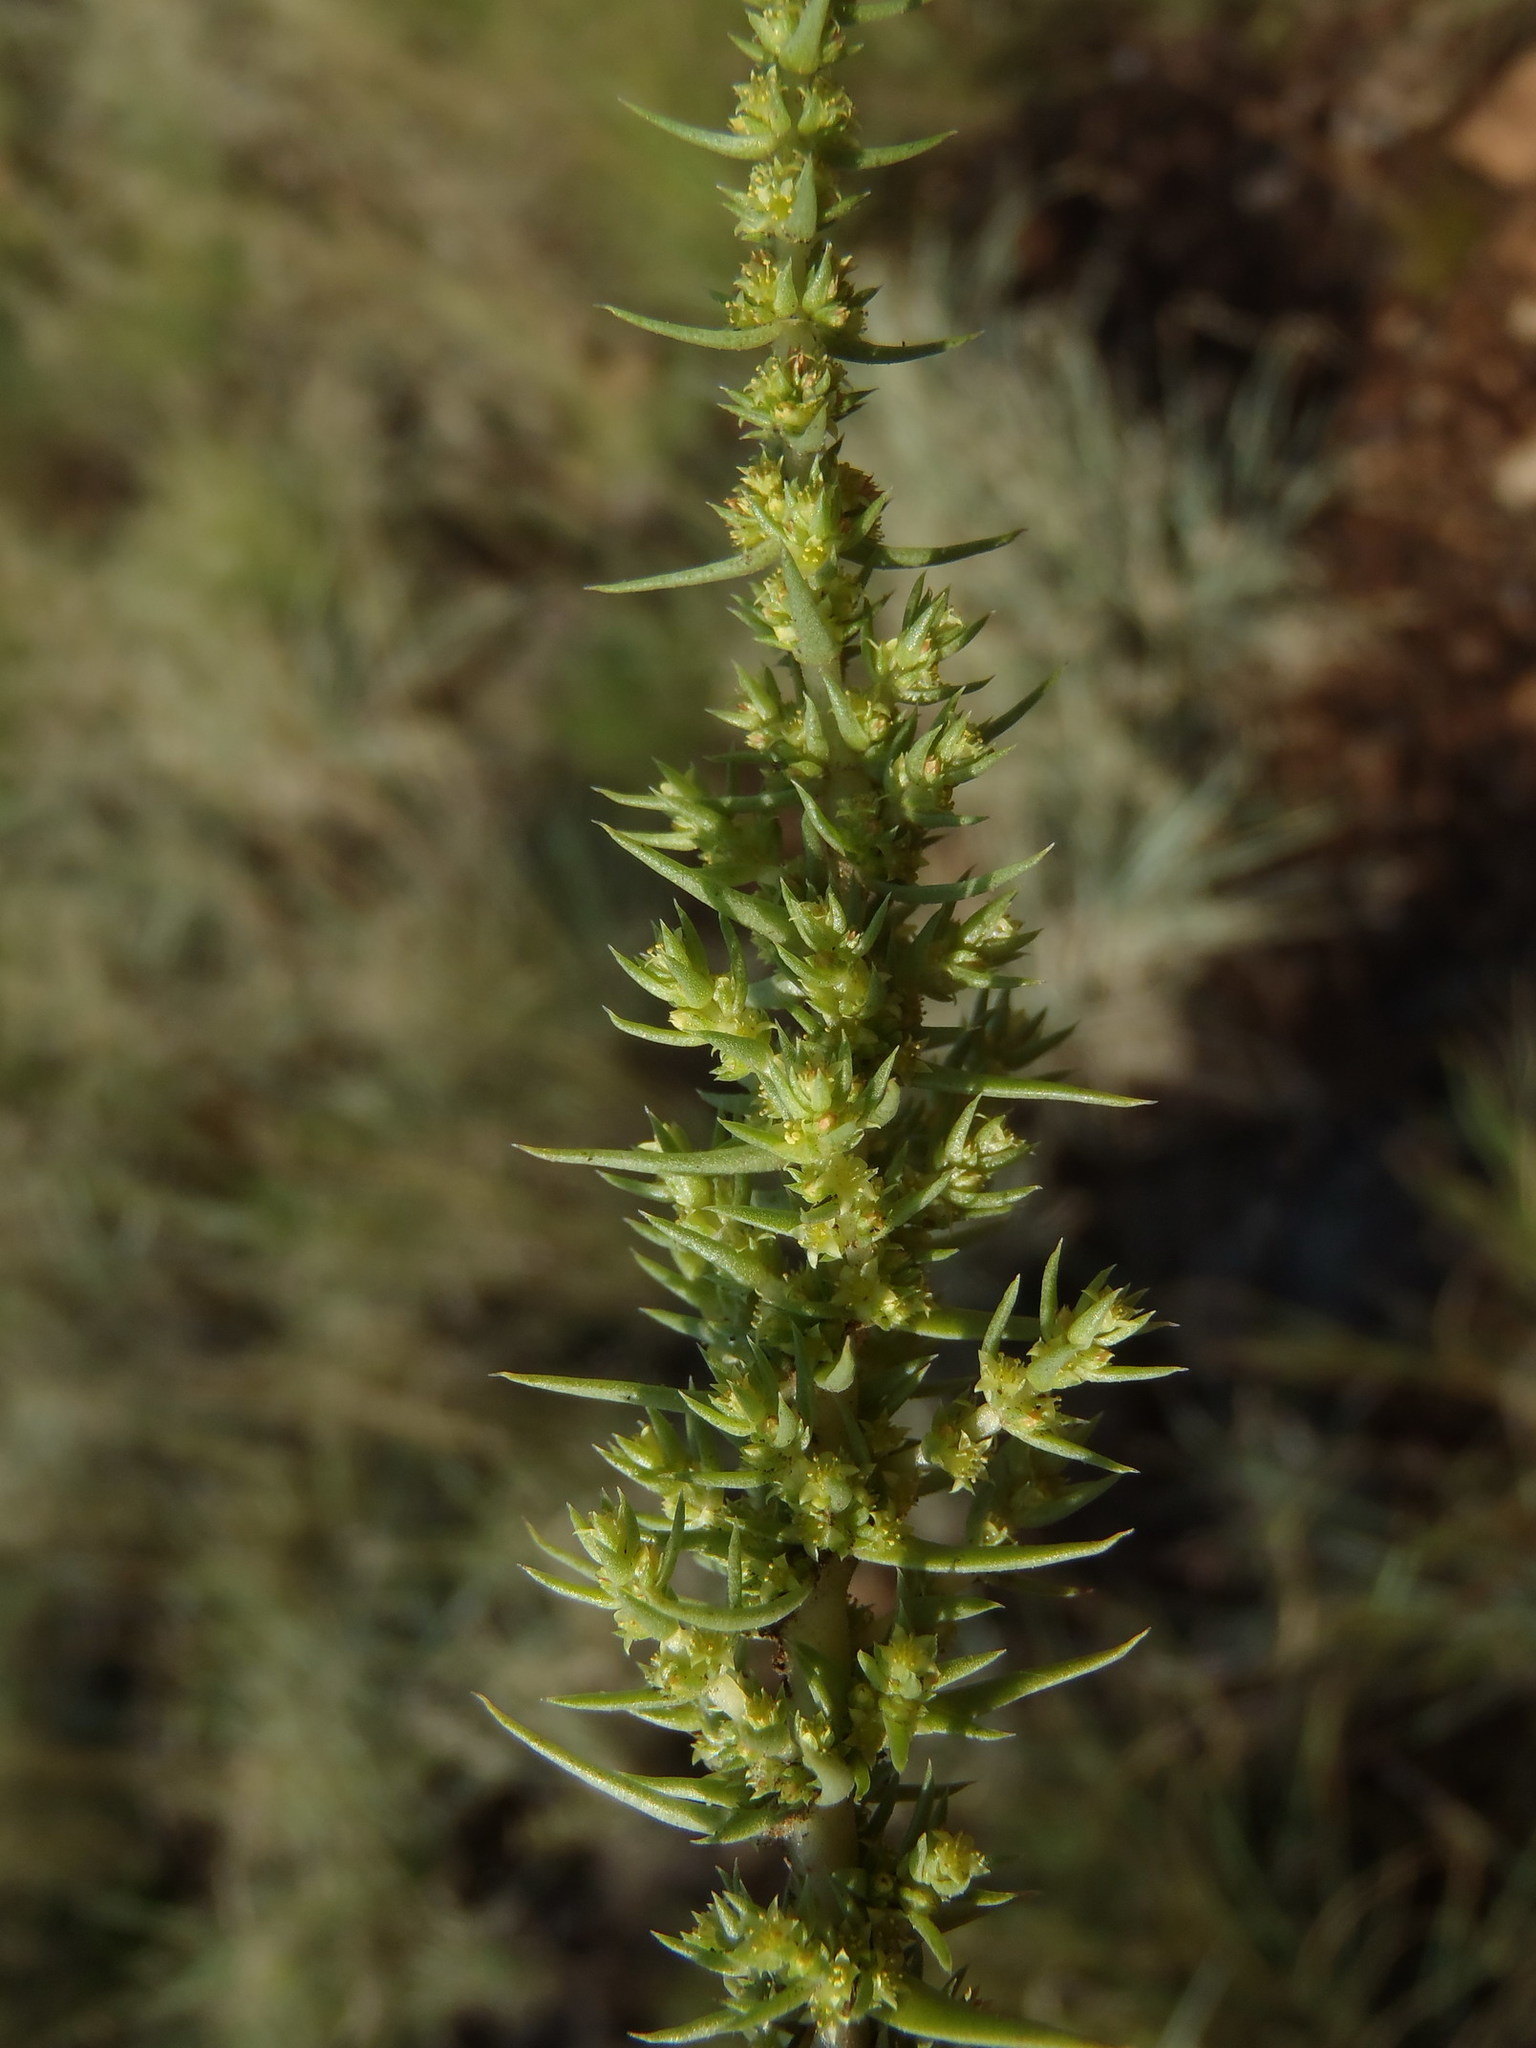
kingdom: Plantae
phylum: Tracheophyta
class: Magnoliopsida
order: Saxifragales
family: Crassulaceae
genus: Crassula
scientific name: Crassula lanceolata
